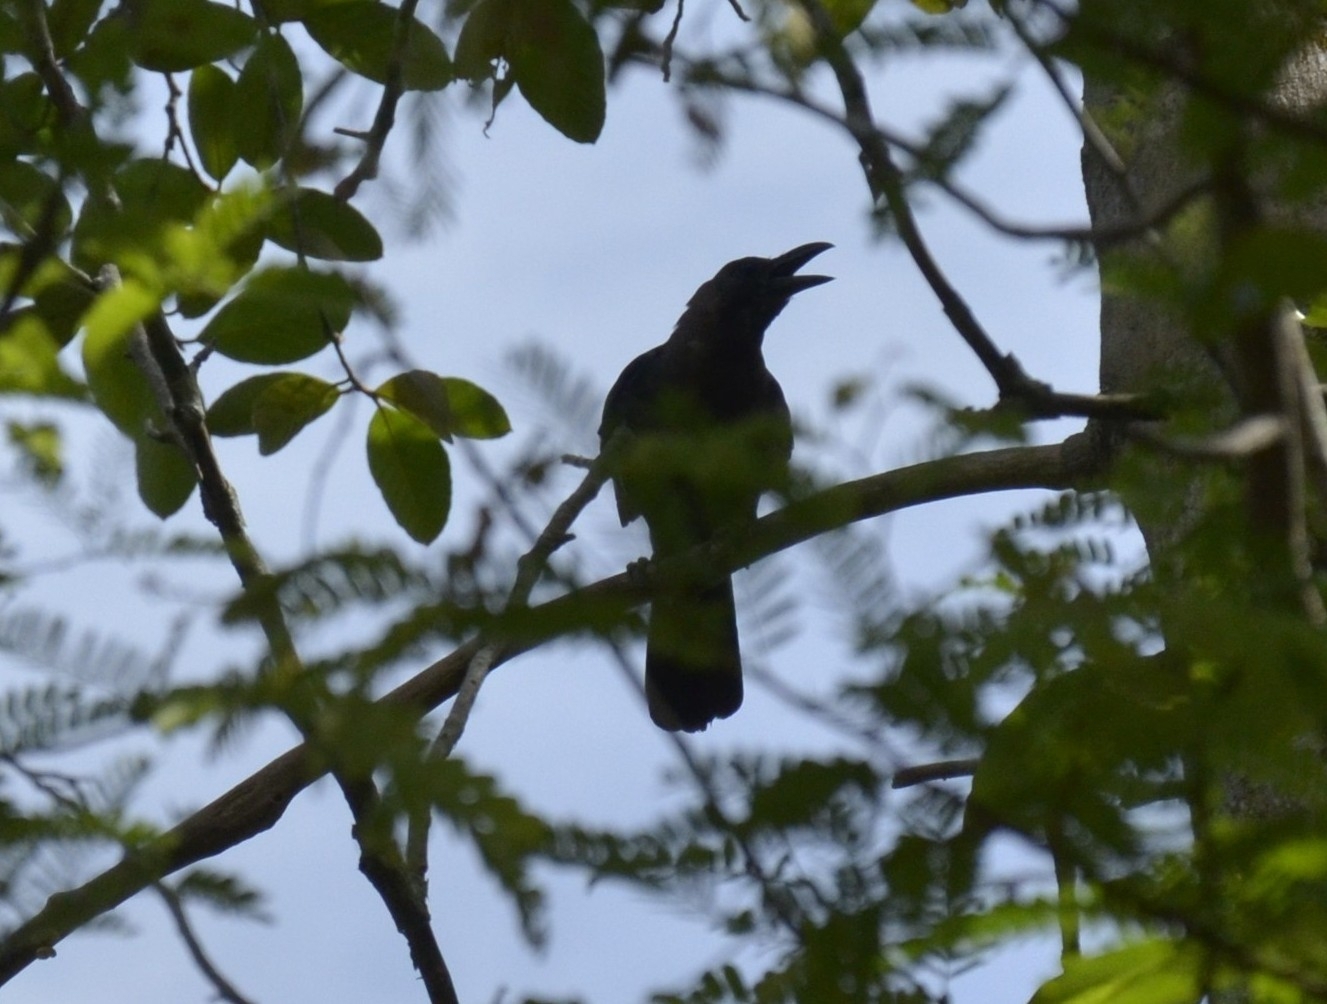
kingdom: Animalia
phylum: Chordata
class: Aves
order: Passeriformes
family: Corvidae
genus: Corvus
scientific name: Corvus splendens
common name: House crow
